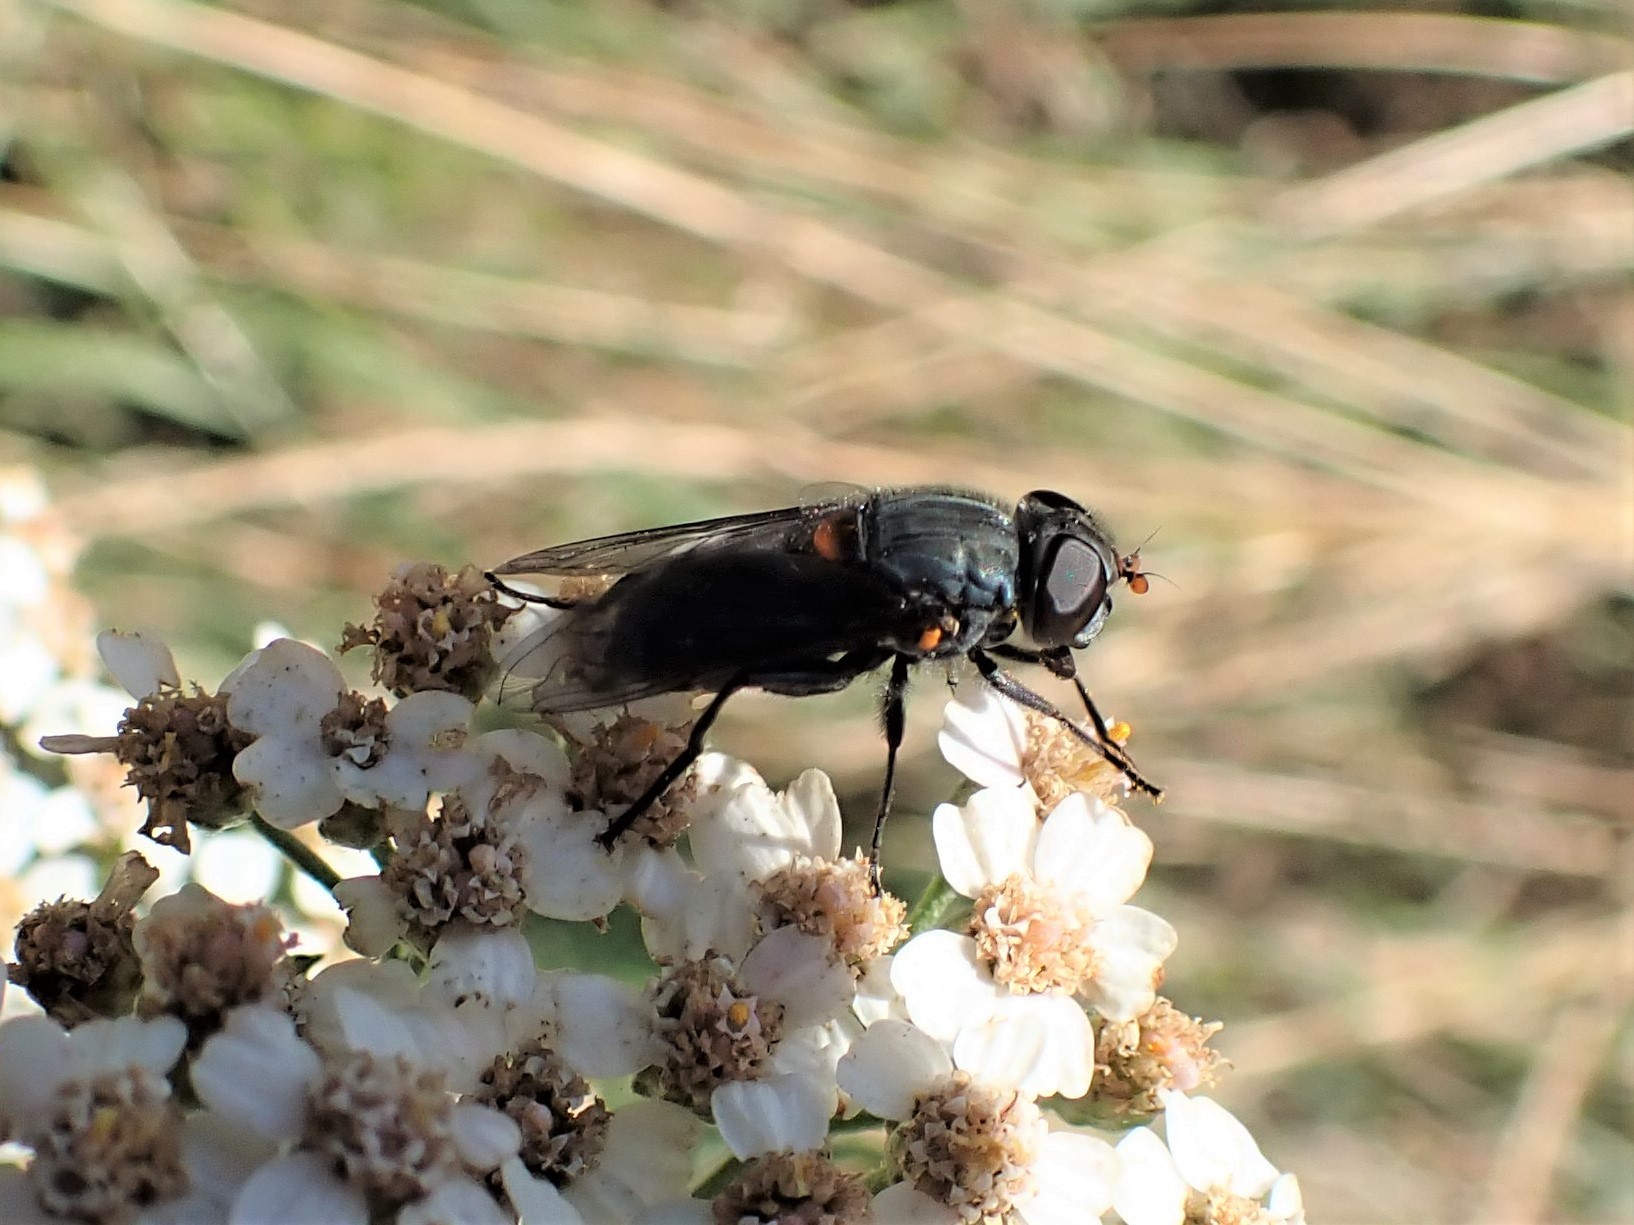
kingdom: Animalia
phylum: Arthropoda
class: Insecta
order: Diptera
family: Syrphidae
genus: Helophilus
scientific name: Helophilus hochstetteri
